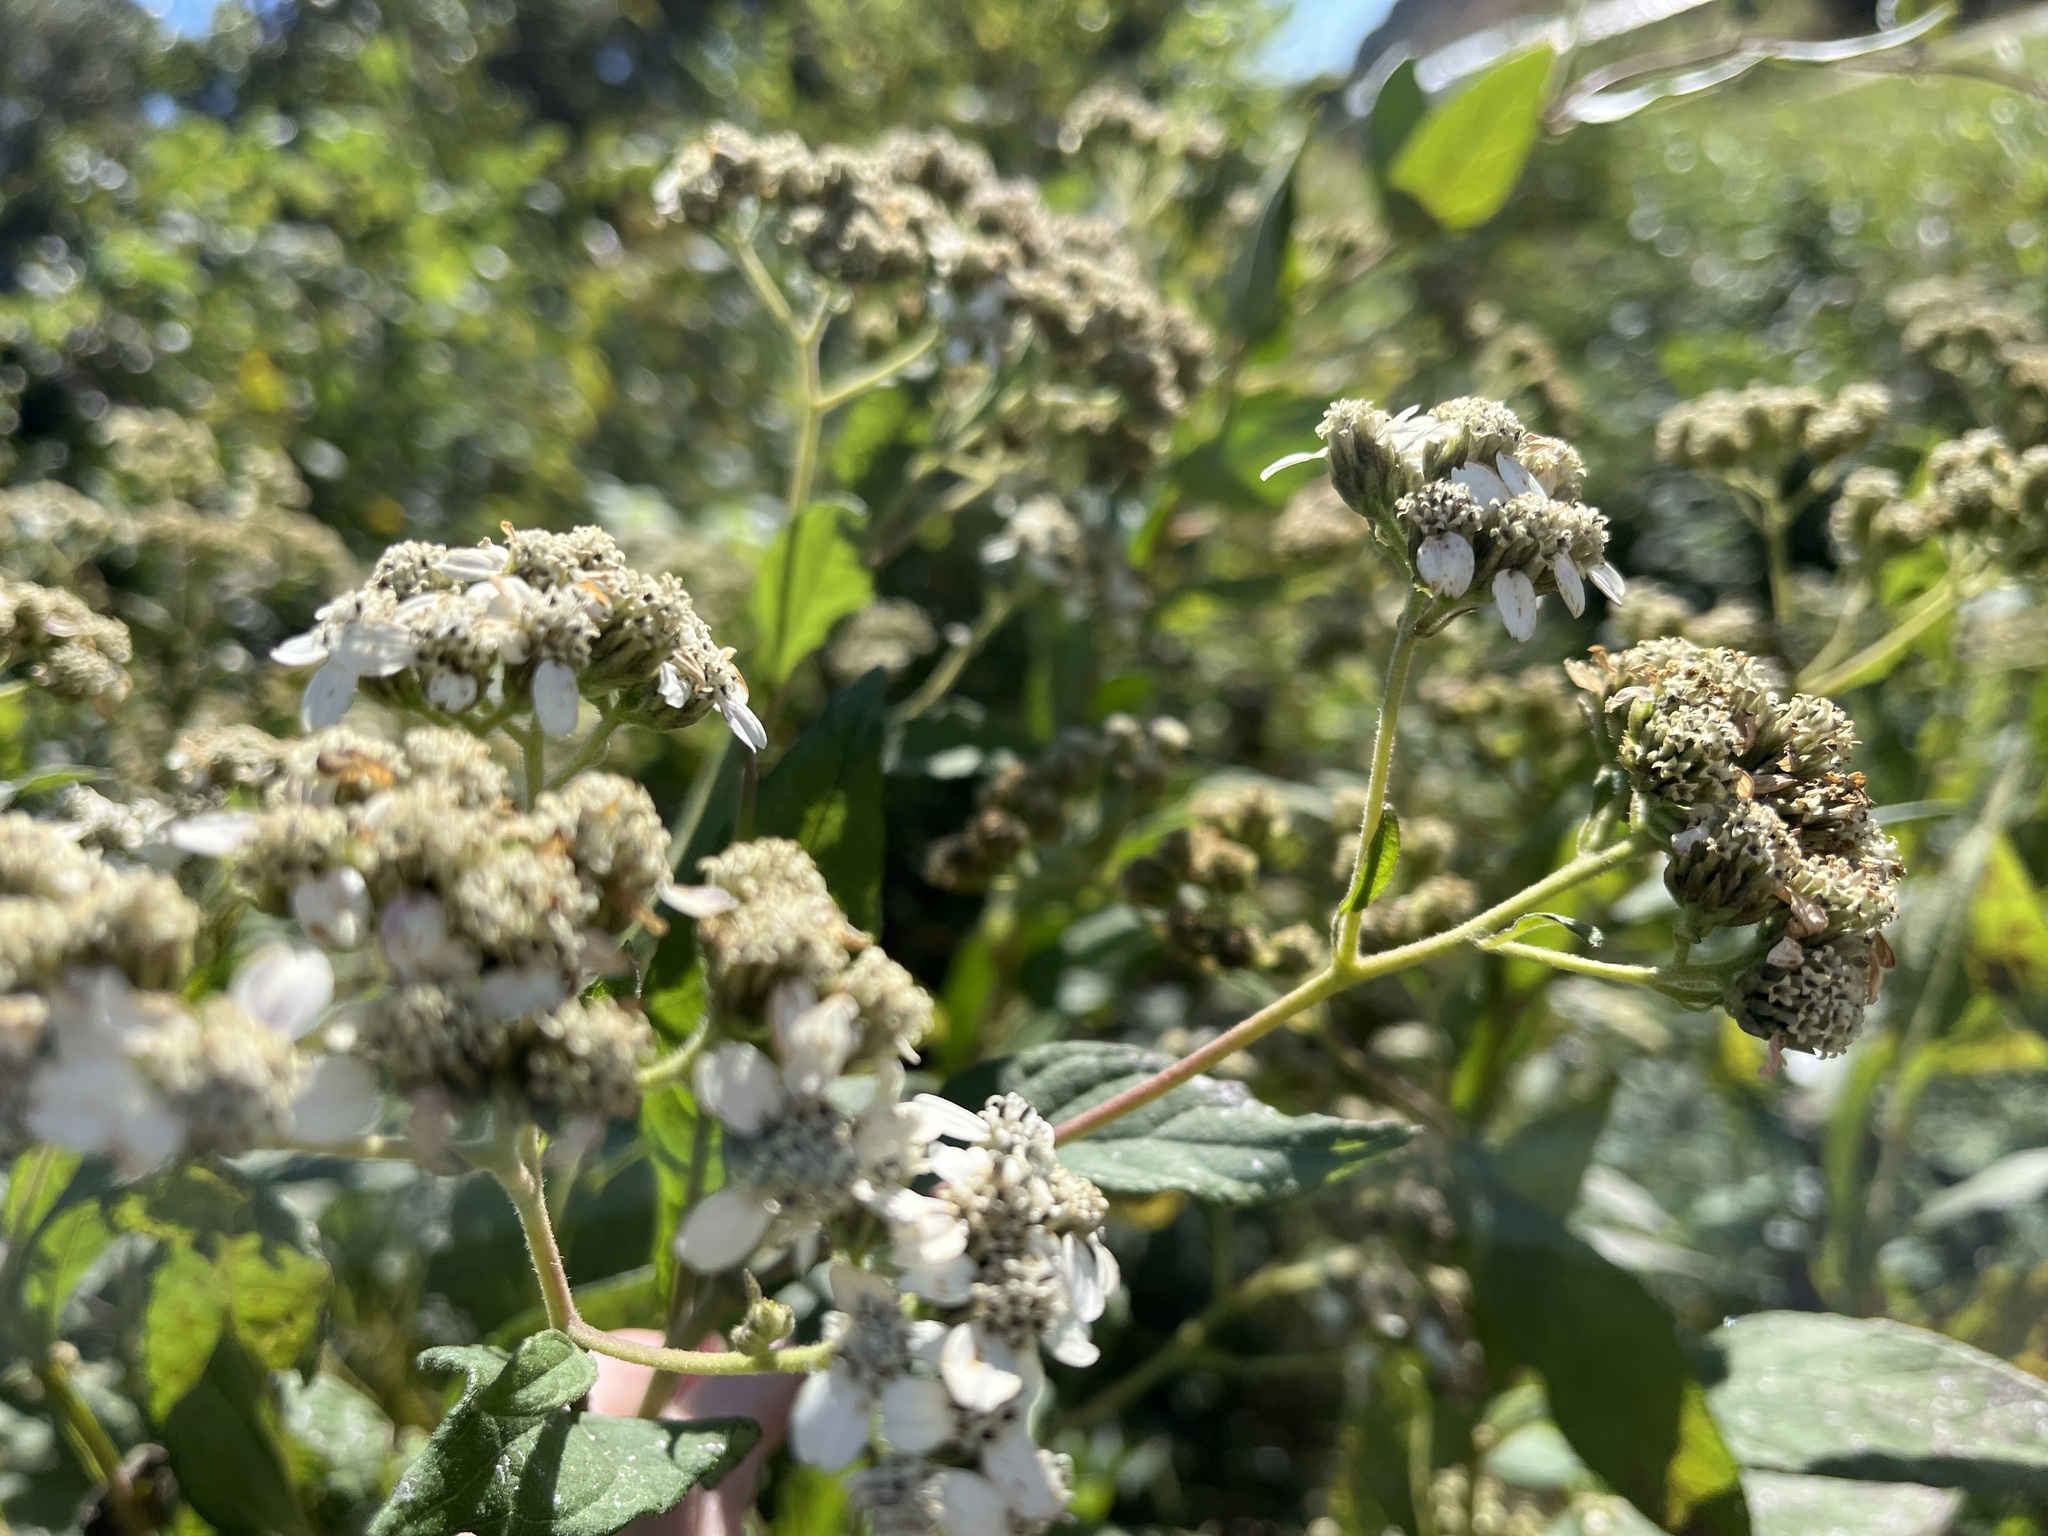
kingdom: Plantae
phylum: Tracheophyta
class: Magnoliopsida
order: Asterales
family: Asteraceae
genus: Verbesina
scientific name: Verbesina virginica
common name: Frostweed
